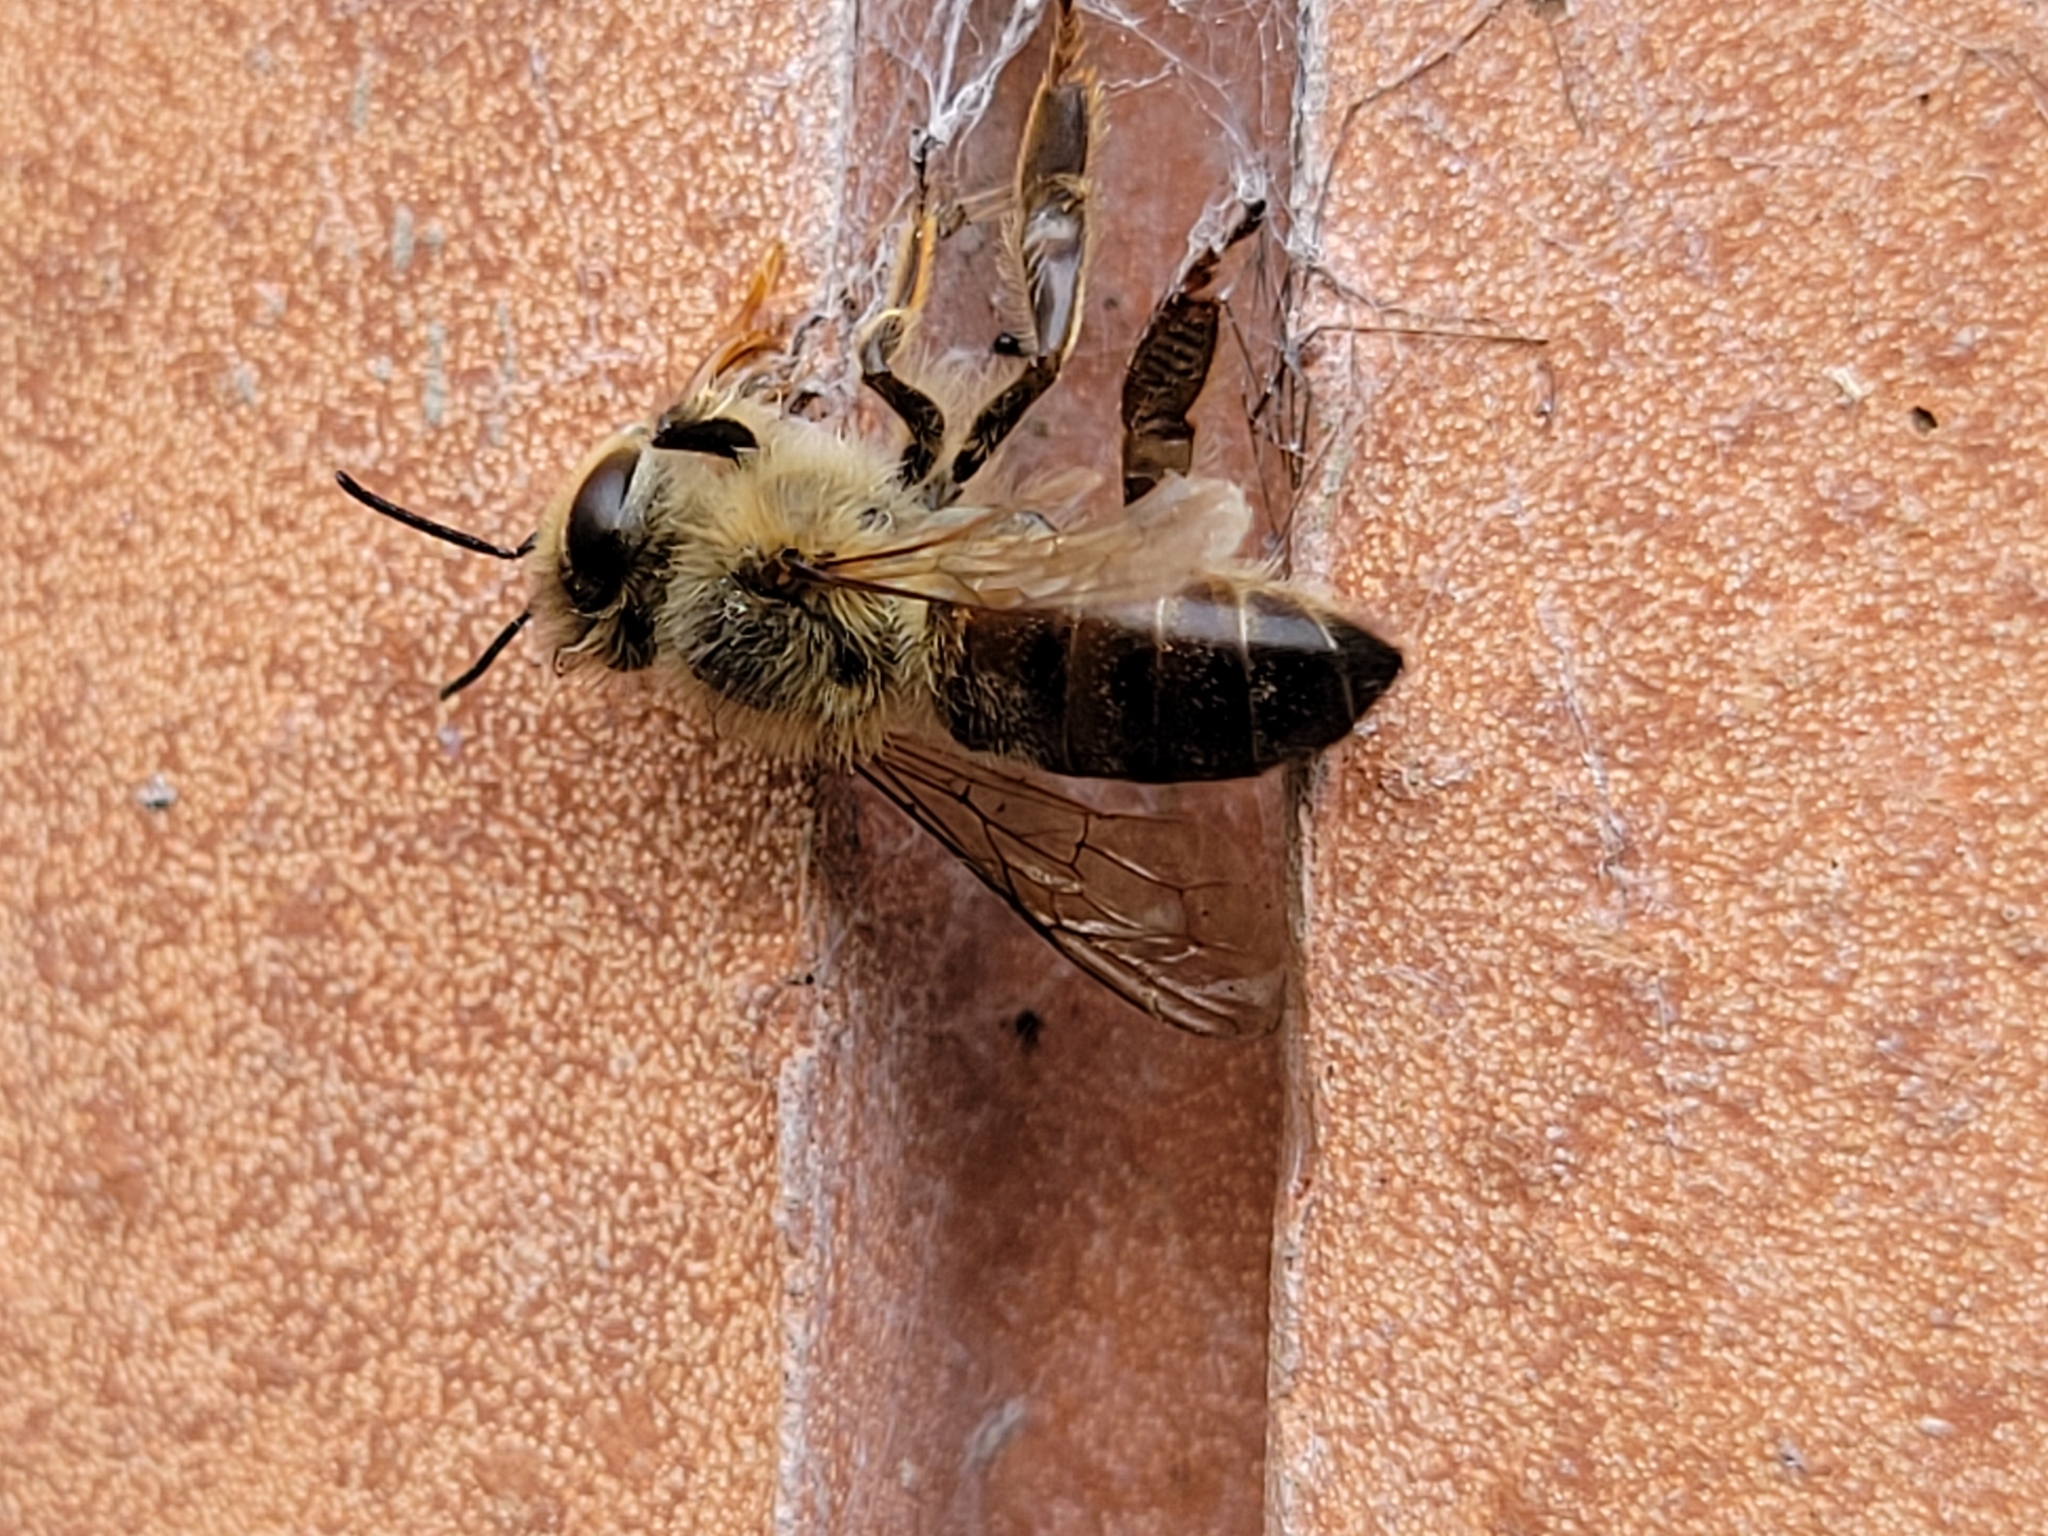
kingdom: Animalia
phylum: Arthropoda
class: Insecta
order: Hymenoptera
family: Apidae
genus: Apis
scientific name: Apis mellifera
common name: Honey bee
